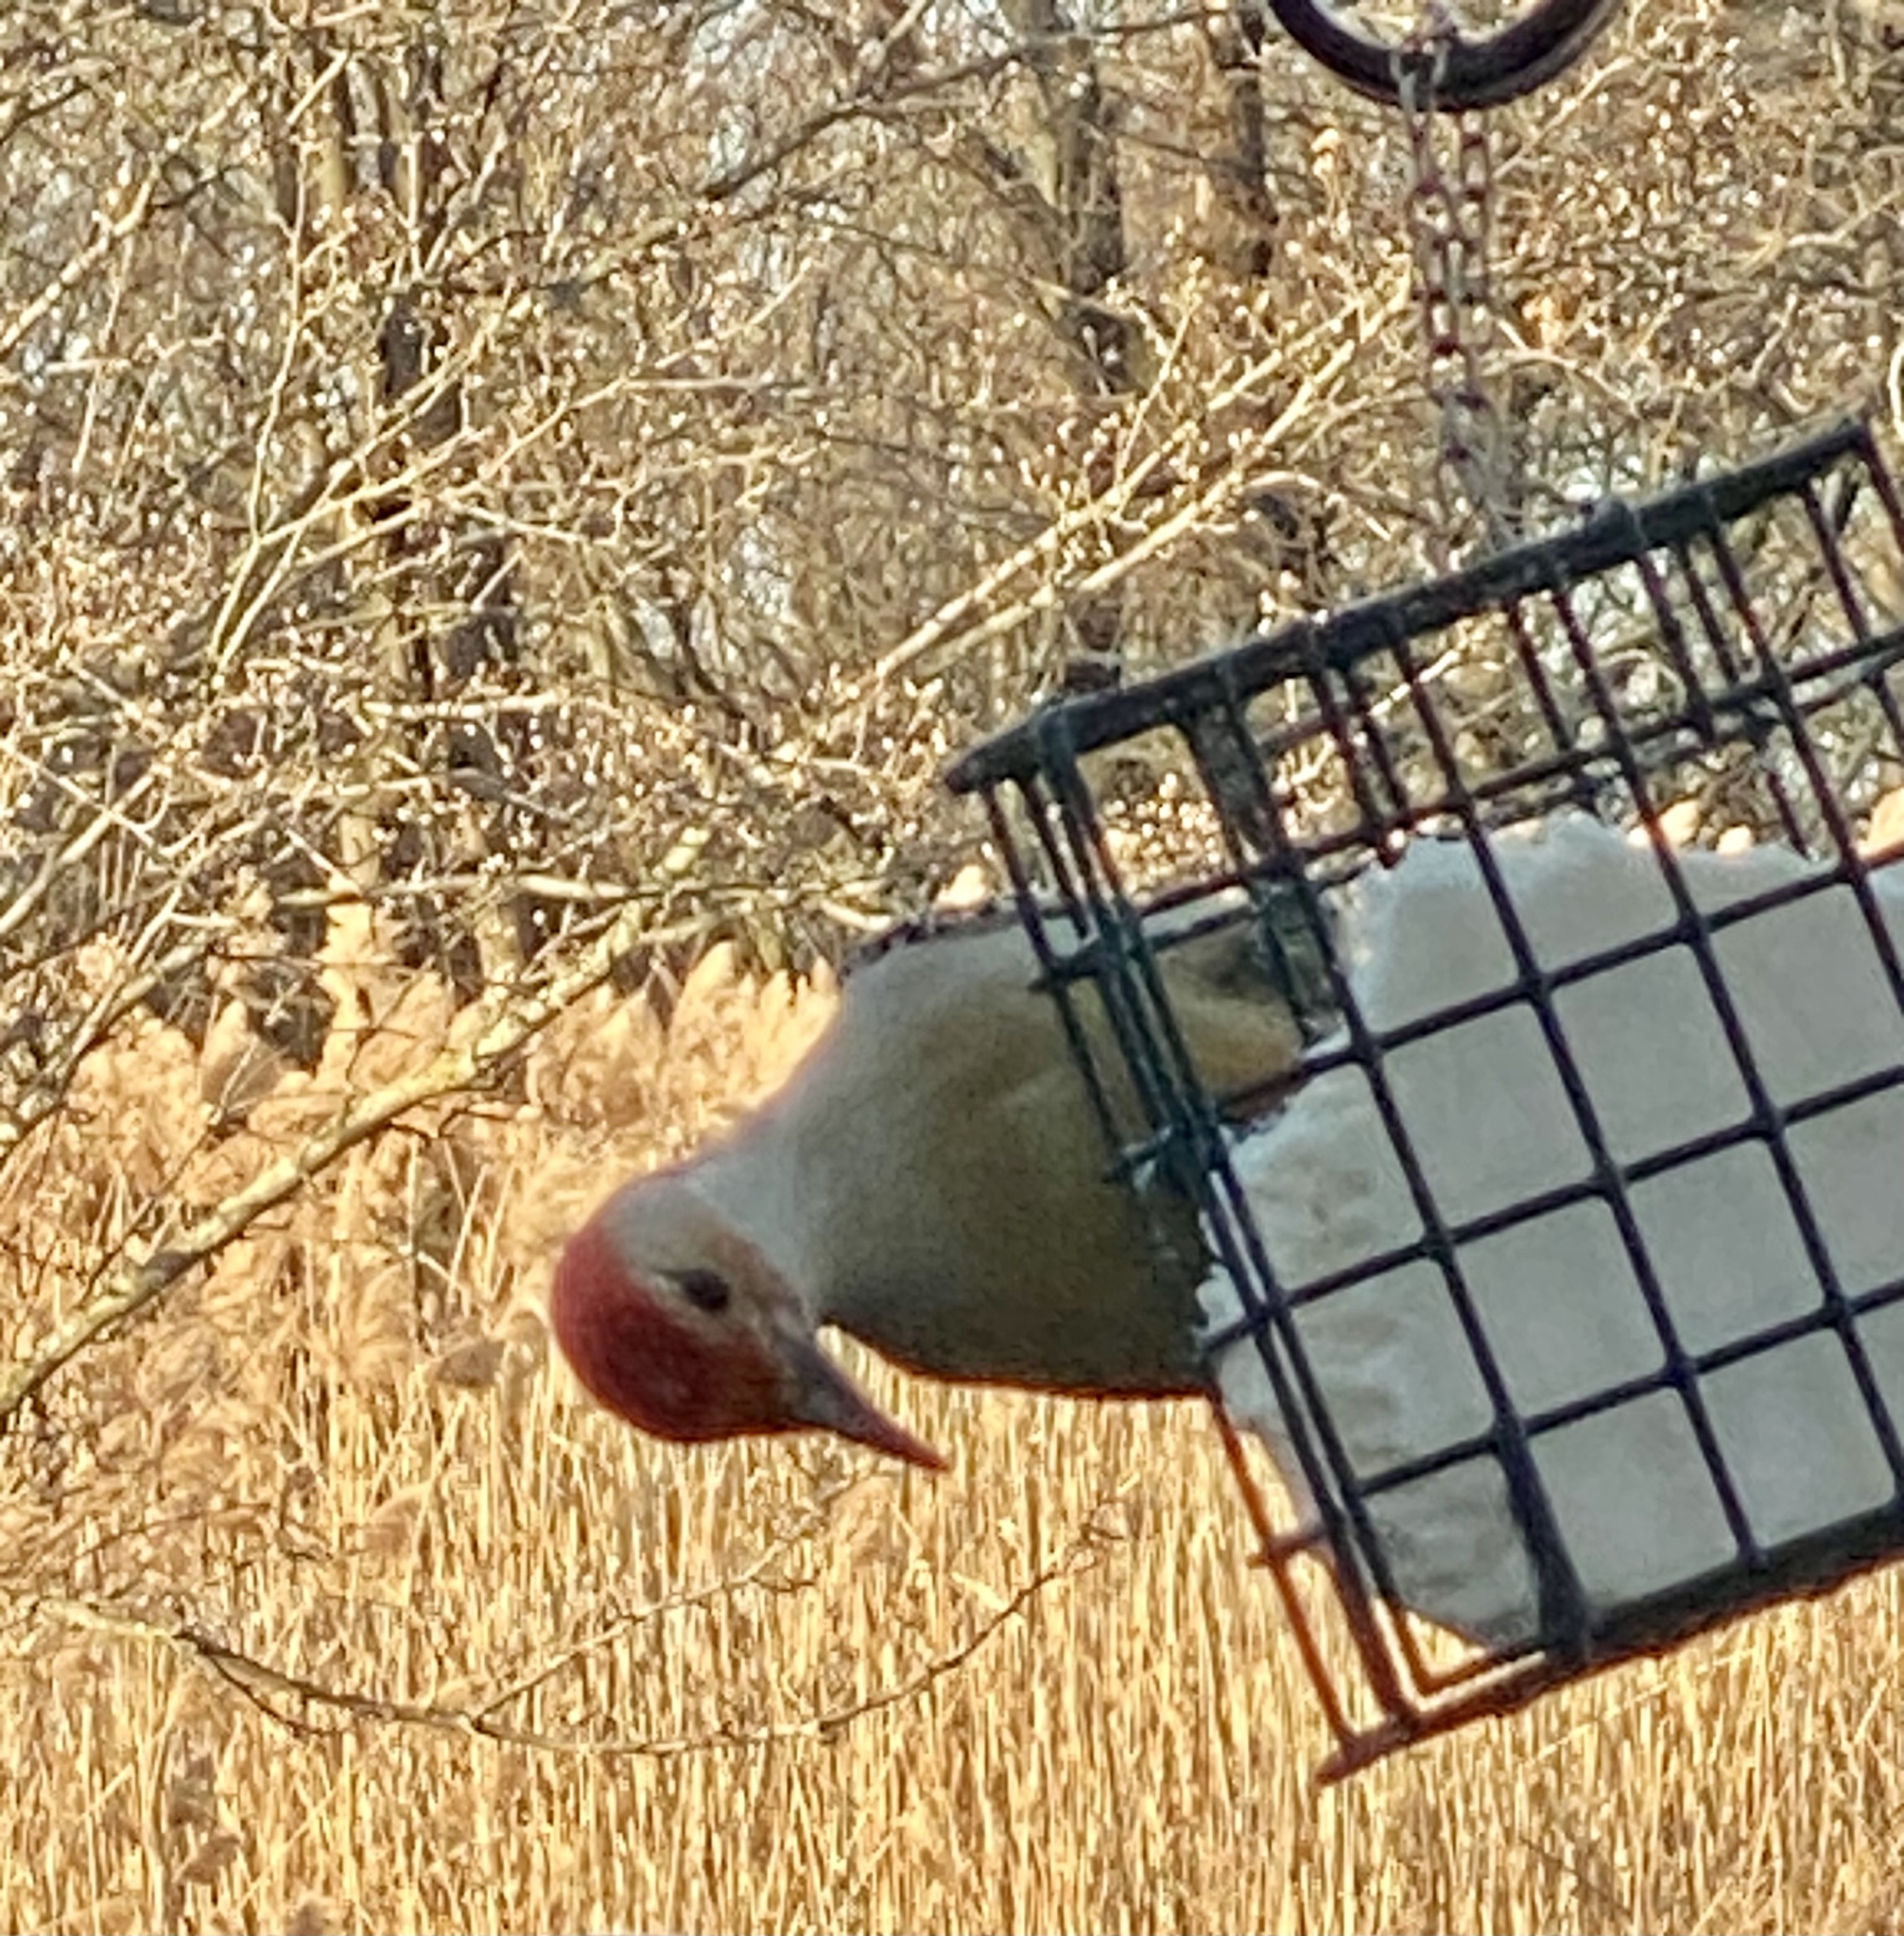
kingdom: Animalia
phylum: Chordata
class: Aves
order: Piciformes
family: Picidae
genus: Melanerpes
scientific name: Melanerpes carolinus
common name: Red-bellied woodpecker
